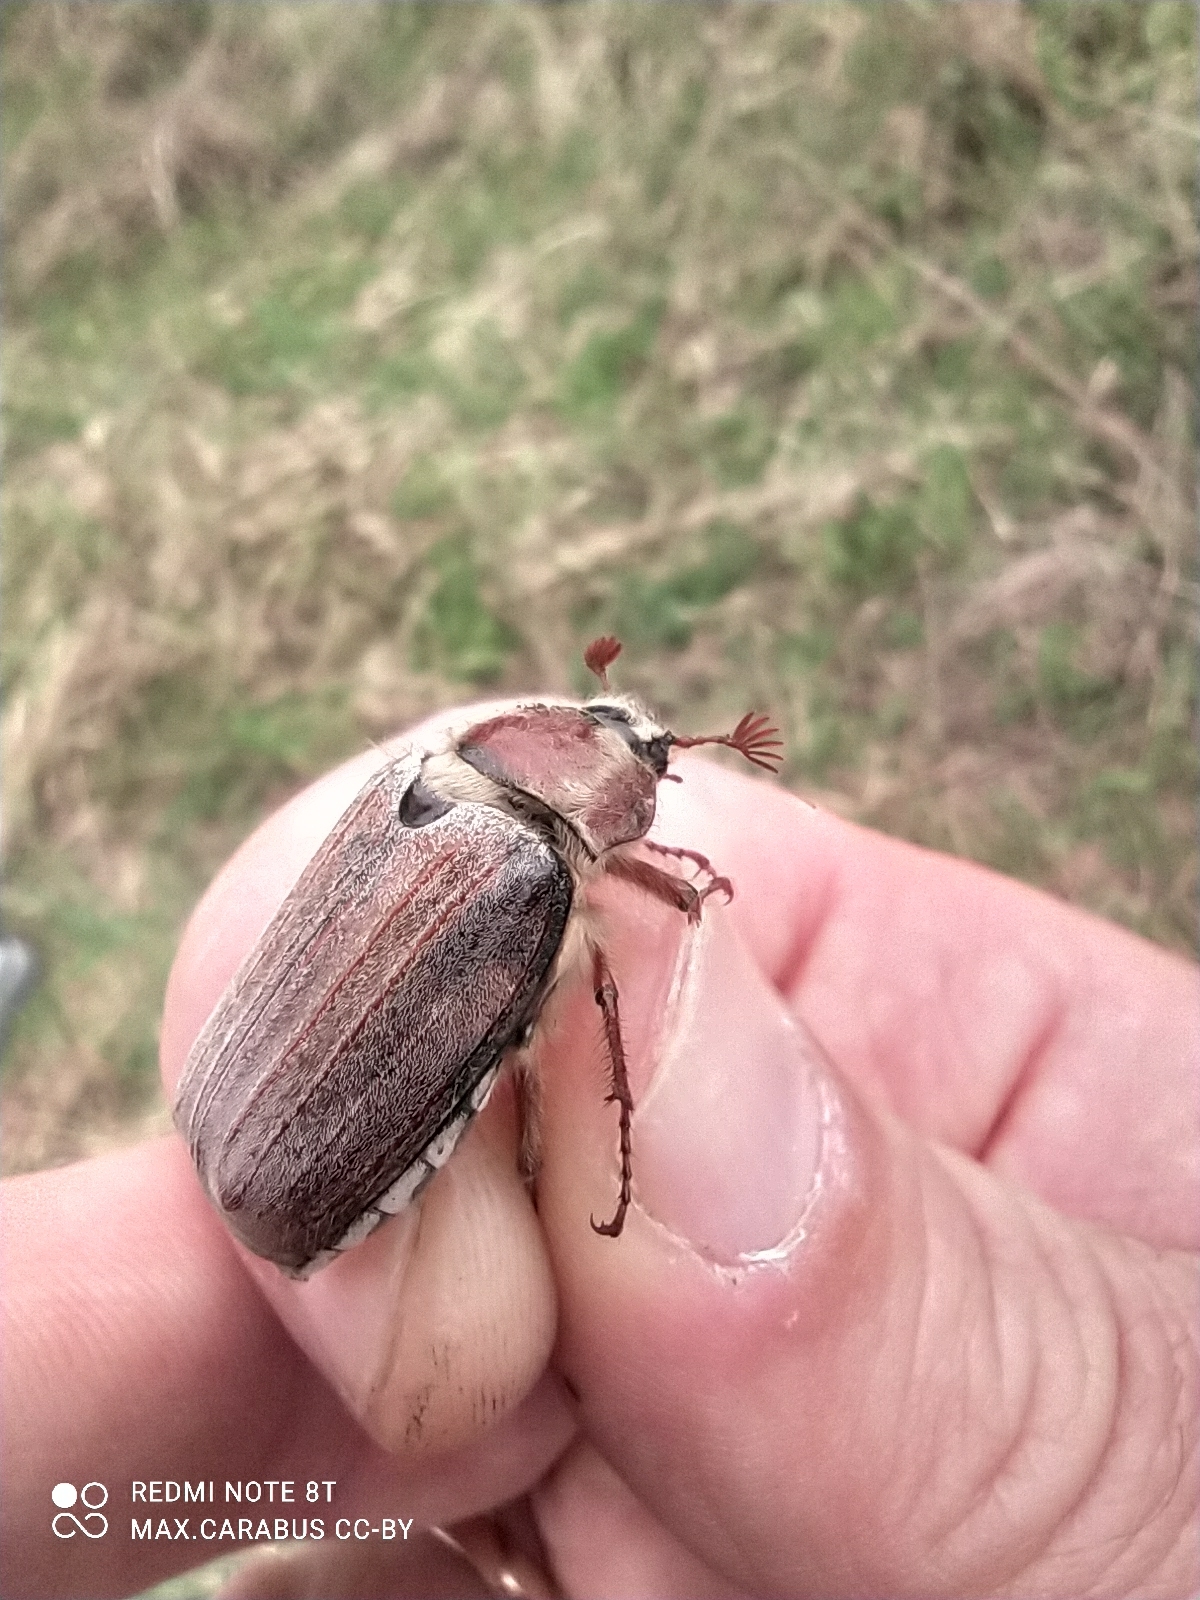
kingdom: Animalia
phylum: Arthropoda
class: Insecta
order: Coleoptera
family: Scarabaeidae
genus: Melolontha
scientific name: Melolontha hippocastani
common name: Chestnut cockchafer
